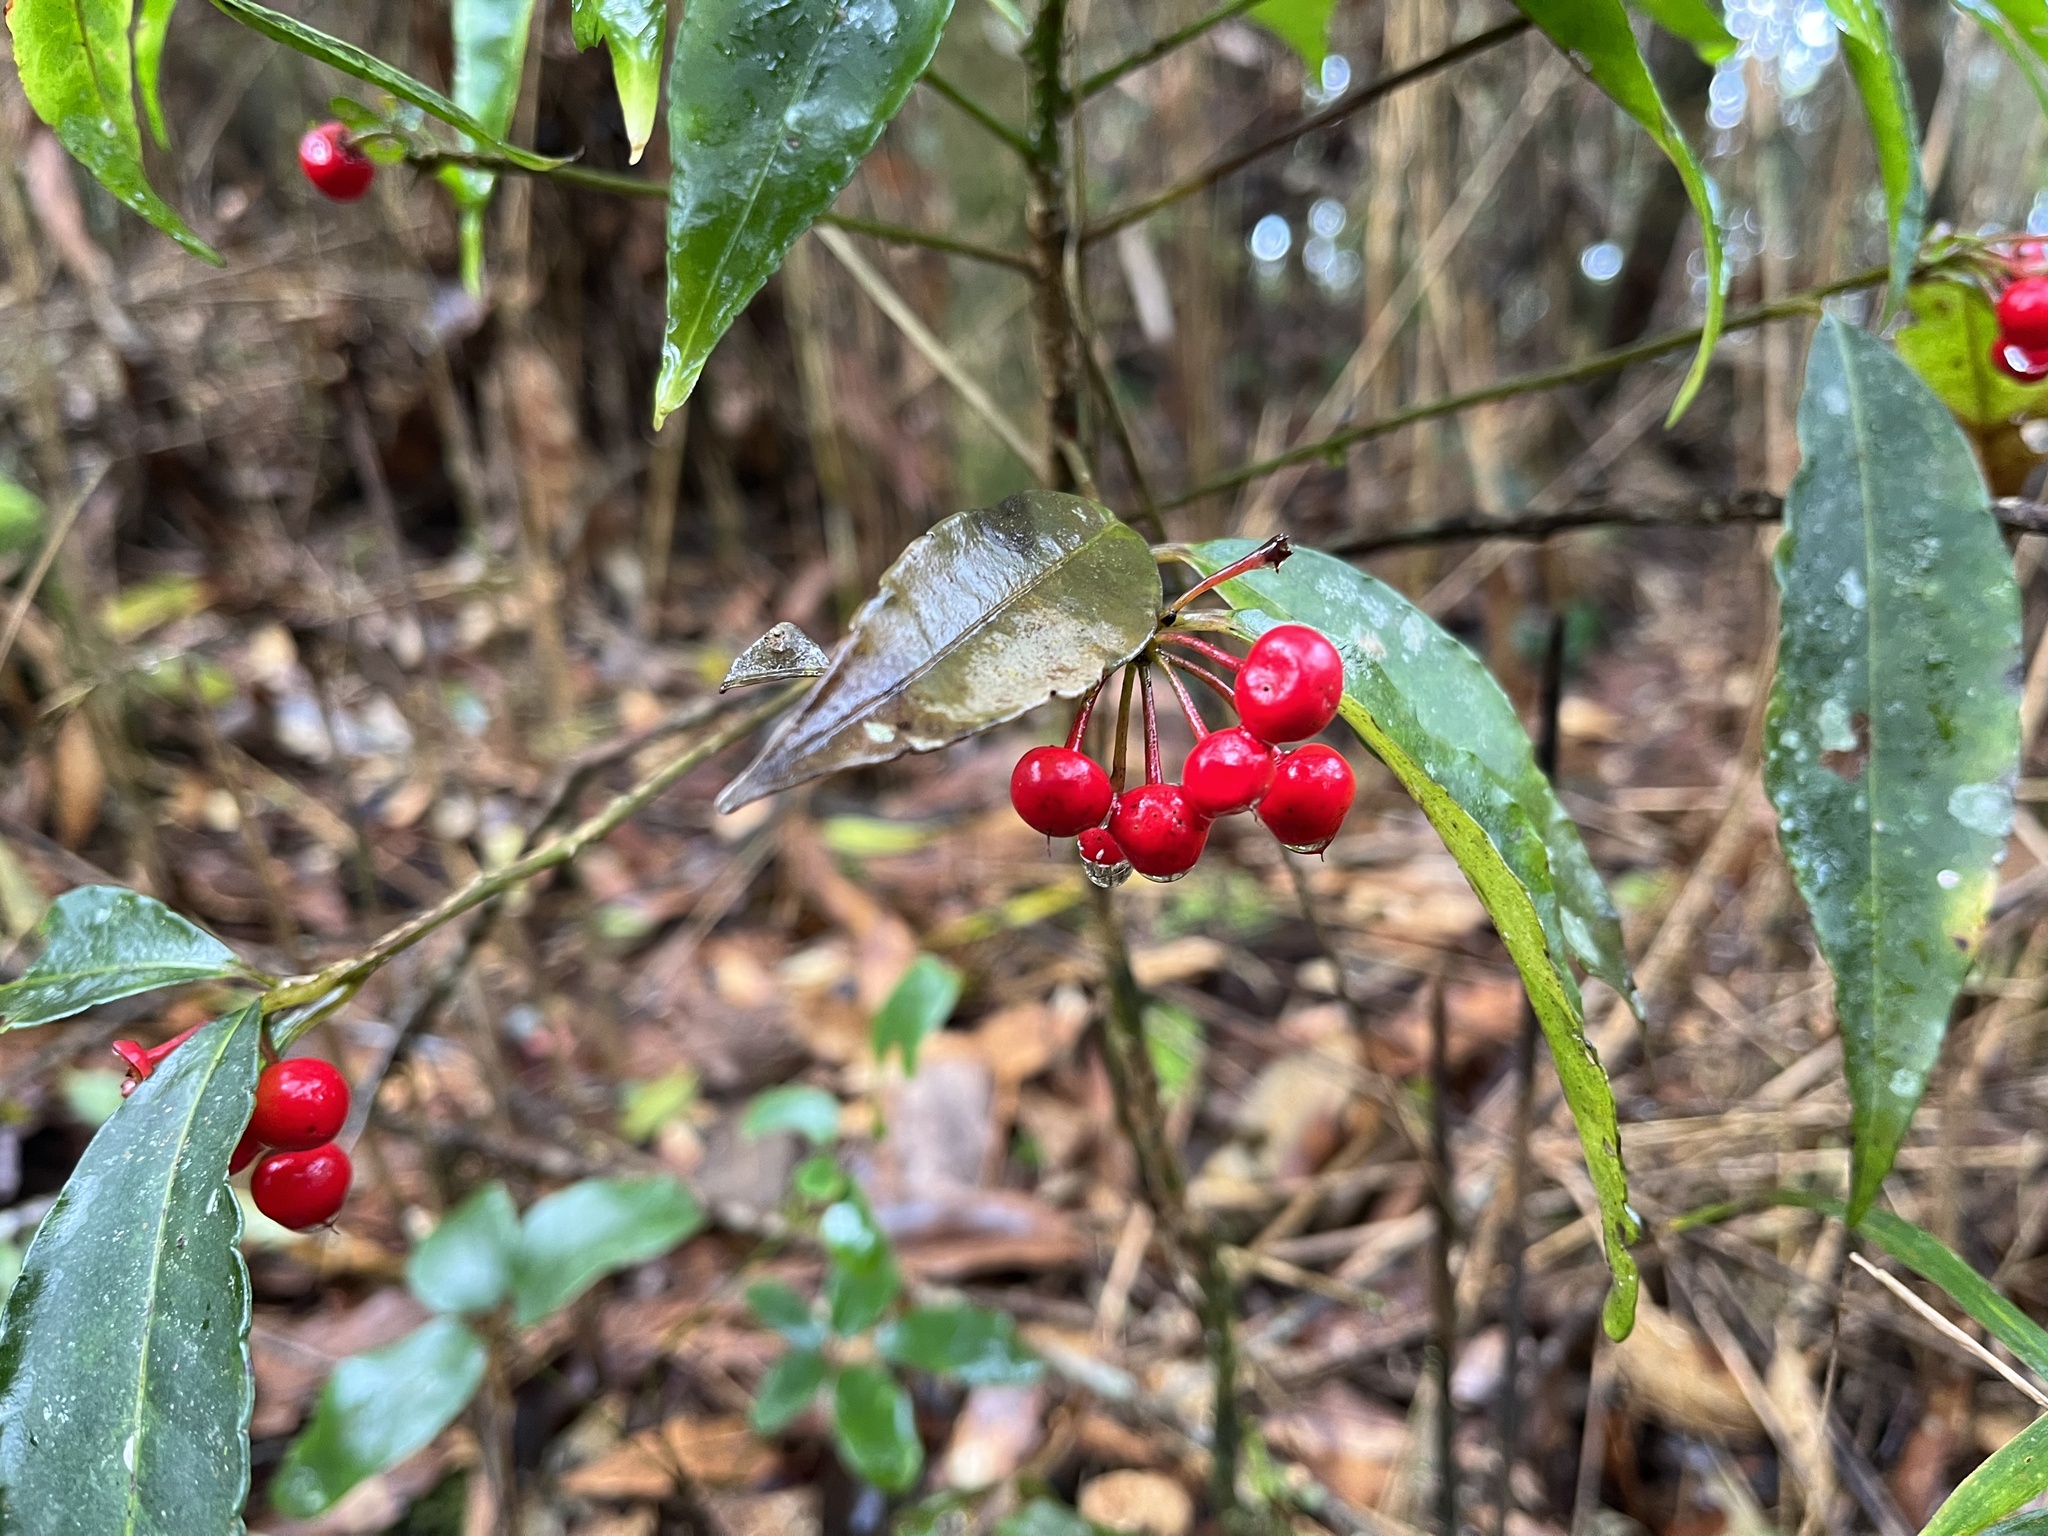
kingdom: Plantae
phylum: Tracheophyta
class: Magnoliopsida
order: Ericales
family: Primulaceae
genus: Ardisia
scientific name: Ardisia crenata
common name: Hen's eyes
